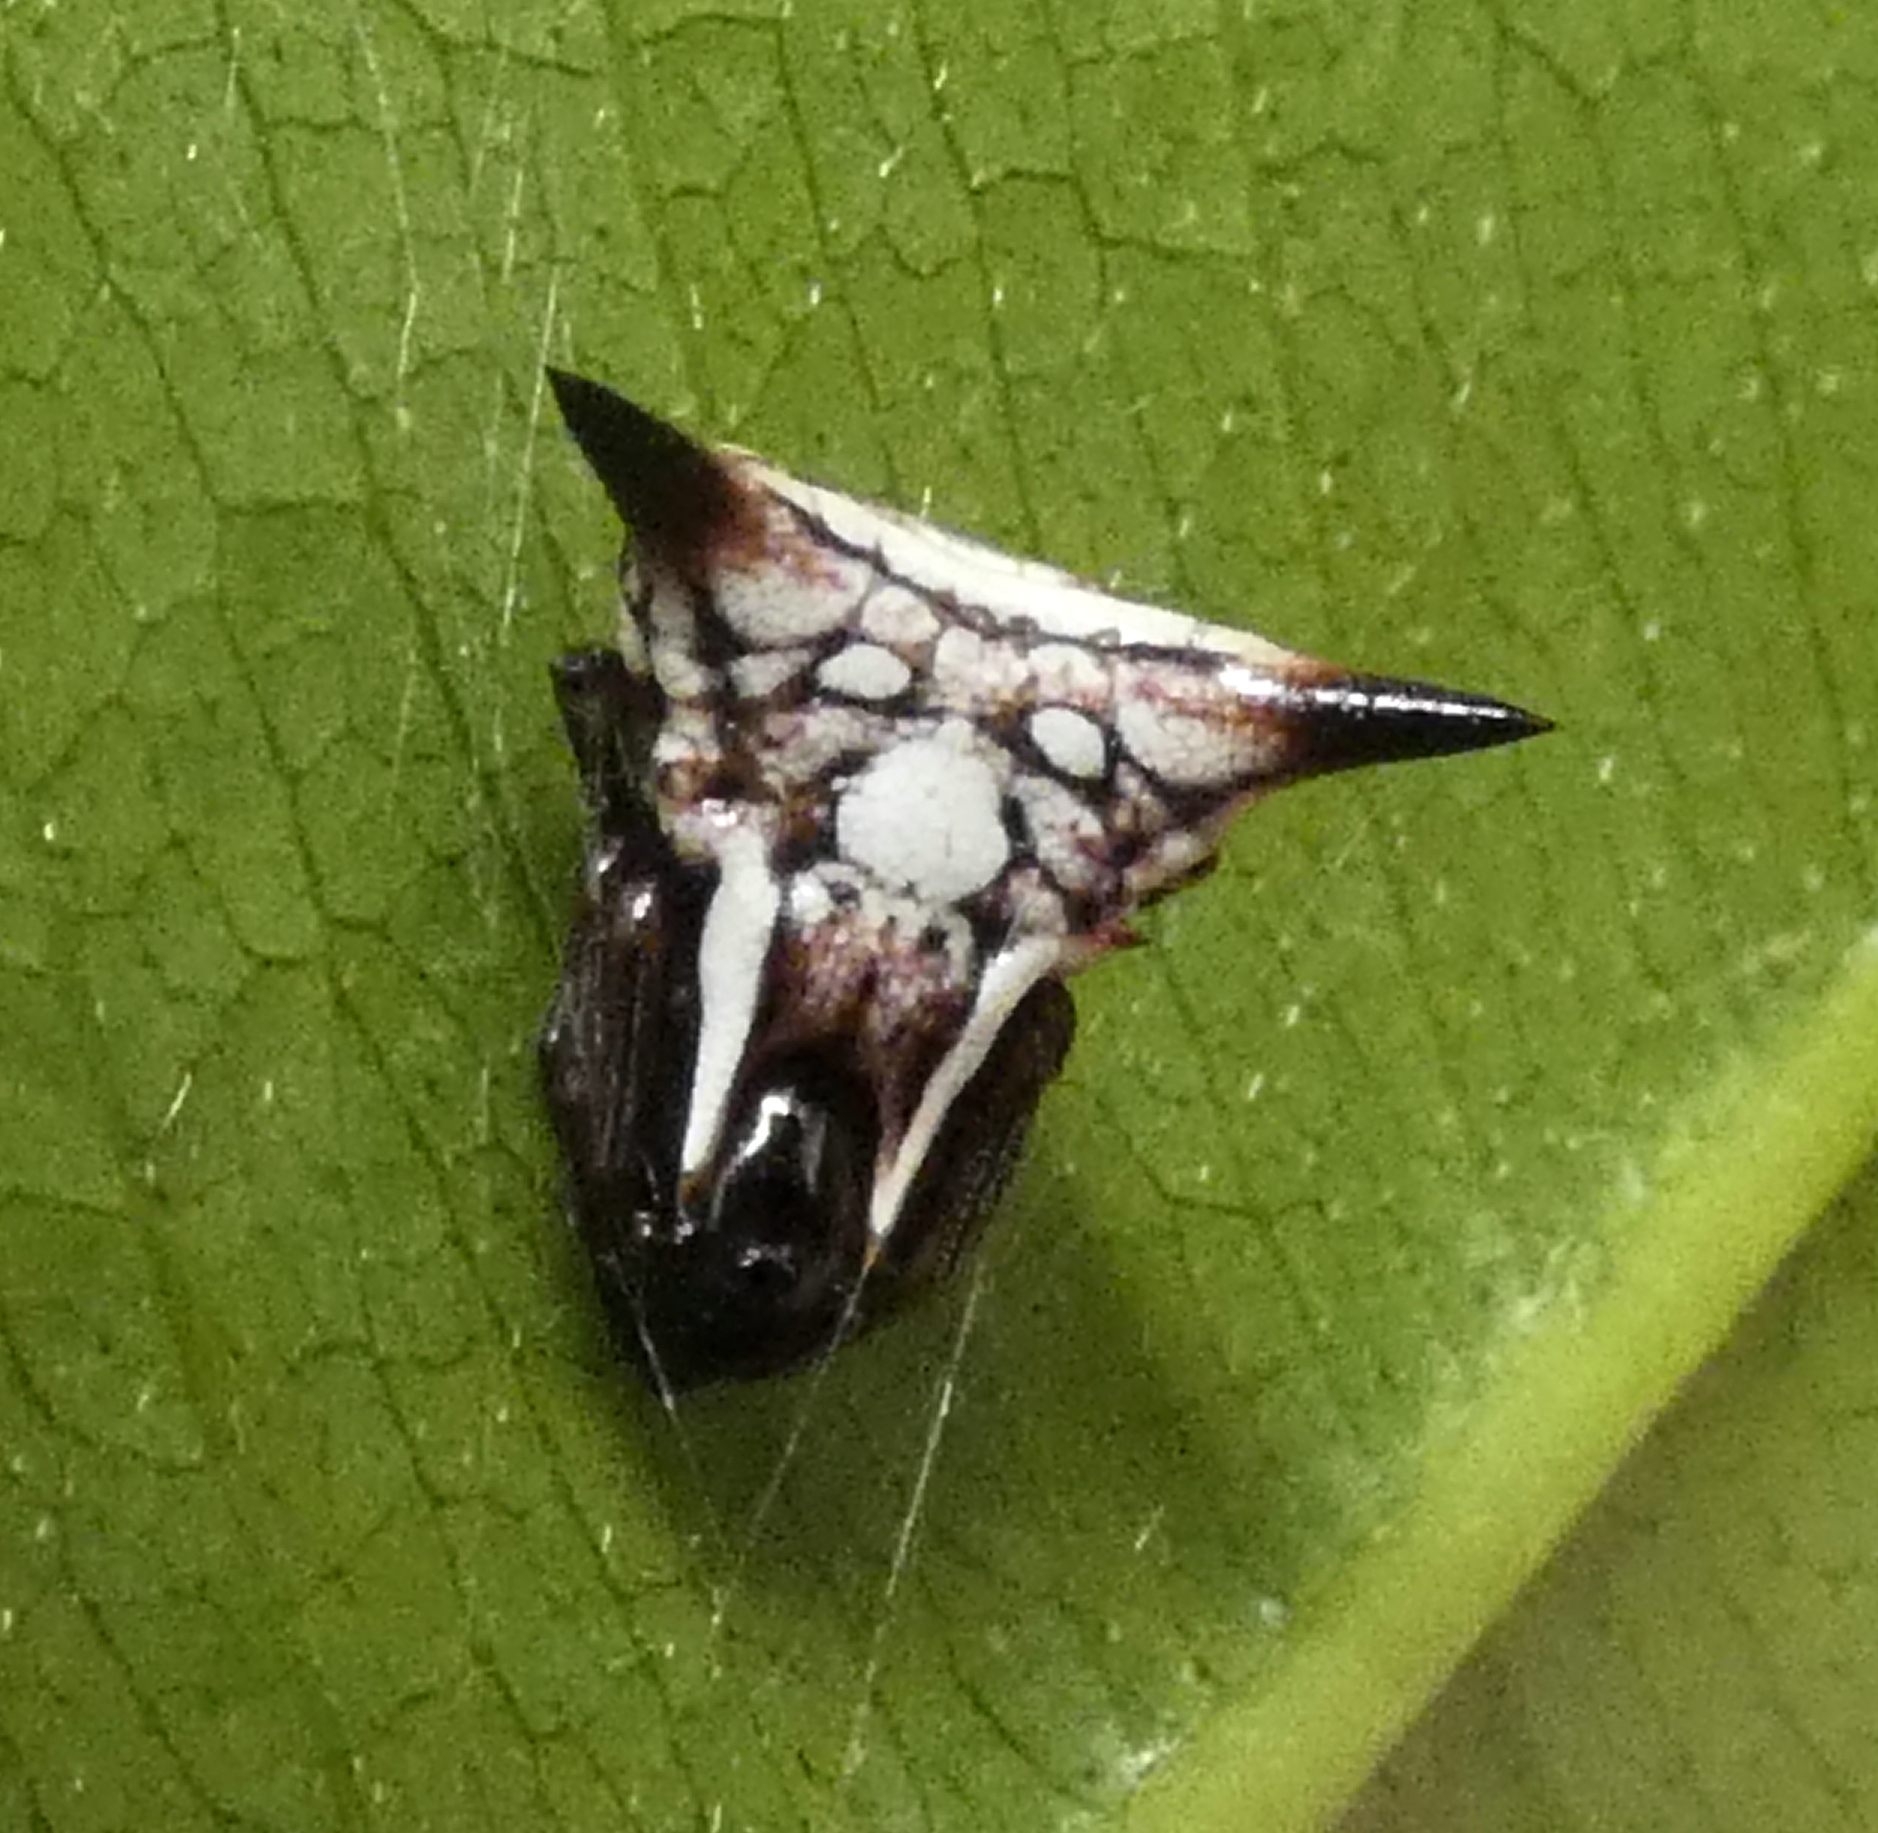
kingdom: Animalia
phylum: Arthropoda
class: Arachnida
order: Araneae
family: Araneidae
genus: Micrathena
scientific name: Micrathena evansi
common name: Orb weavers
